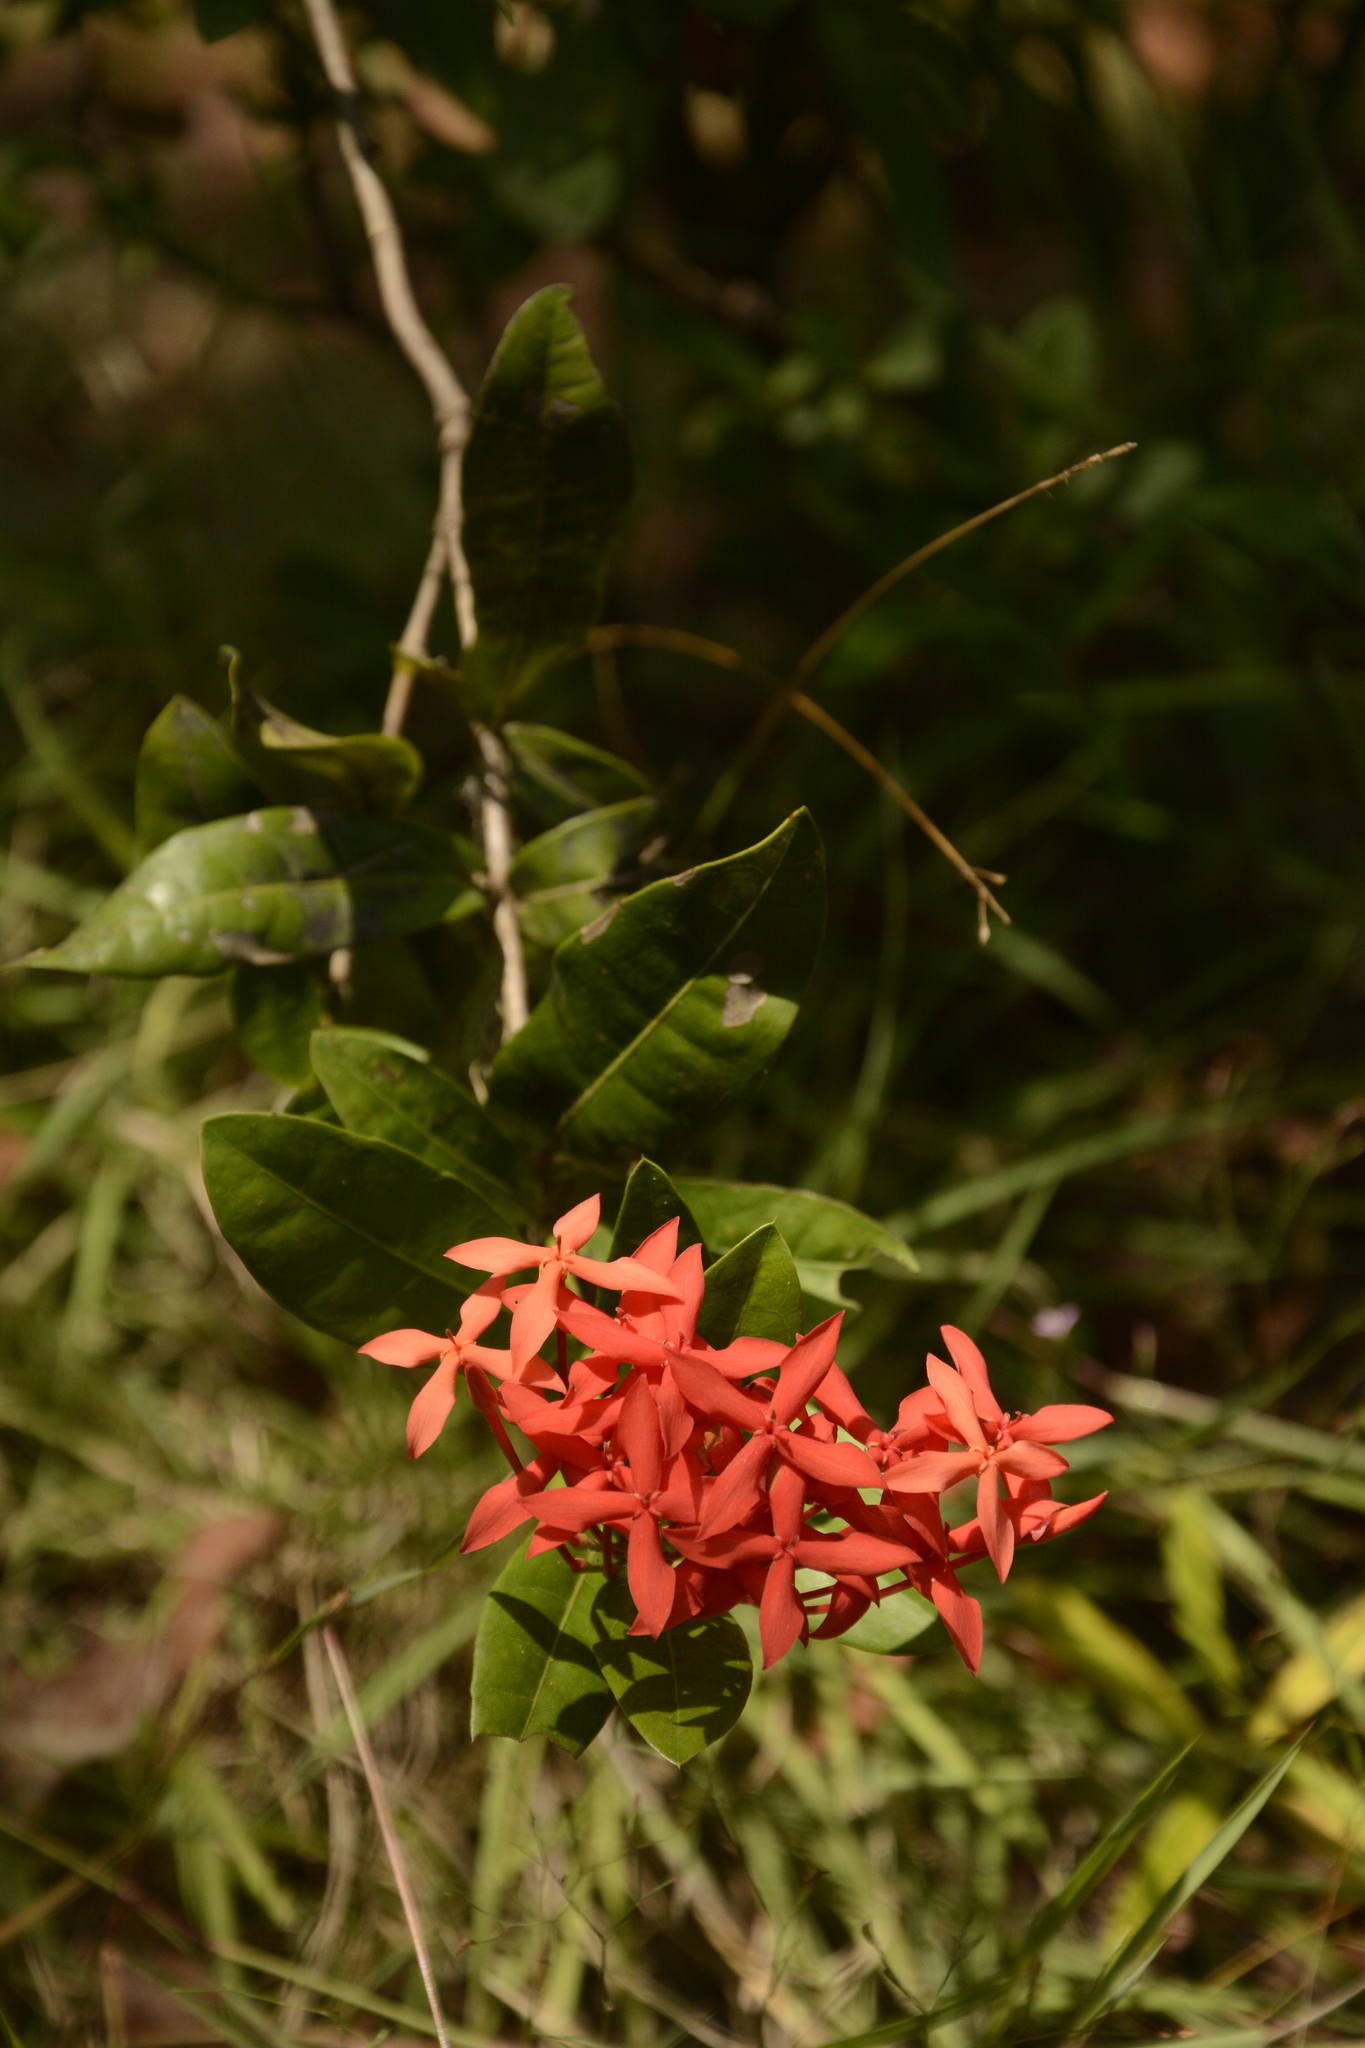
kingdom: Plantae
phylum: Tracheophyta
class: Magnoliopsida
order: Gentianales
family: Rubiaceae
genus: Ixora
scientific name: Ixora coccinea
